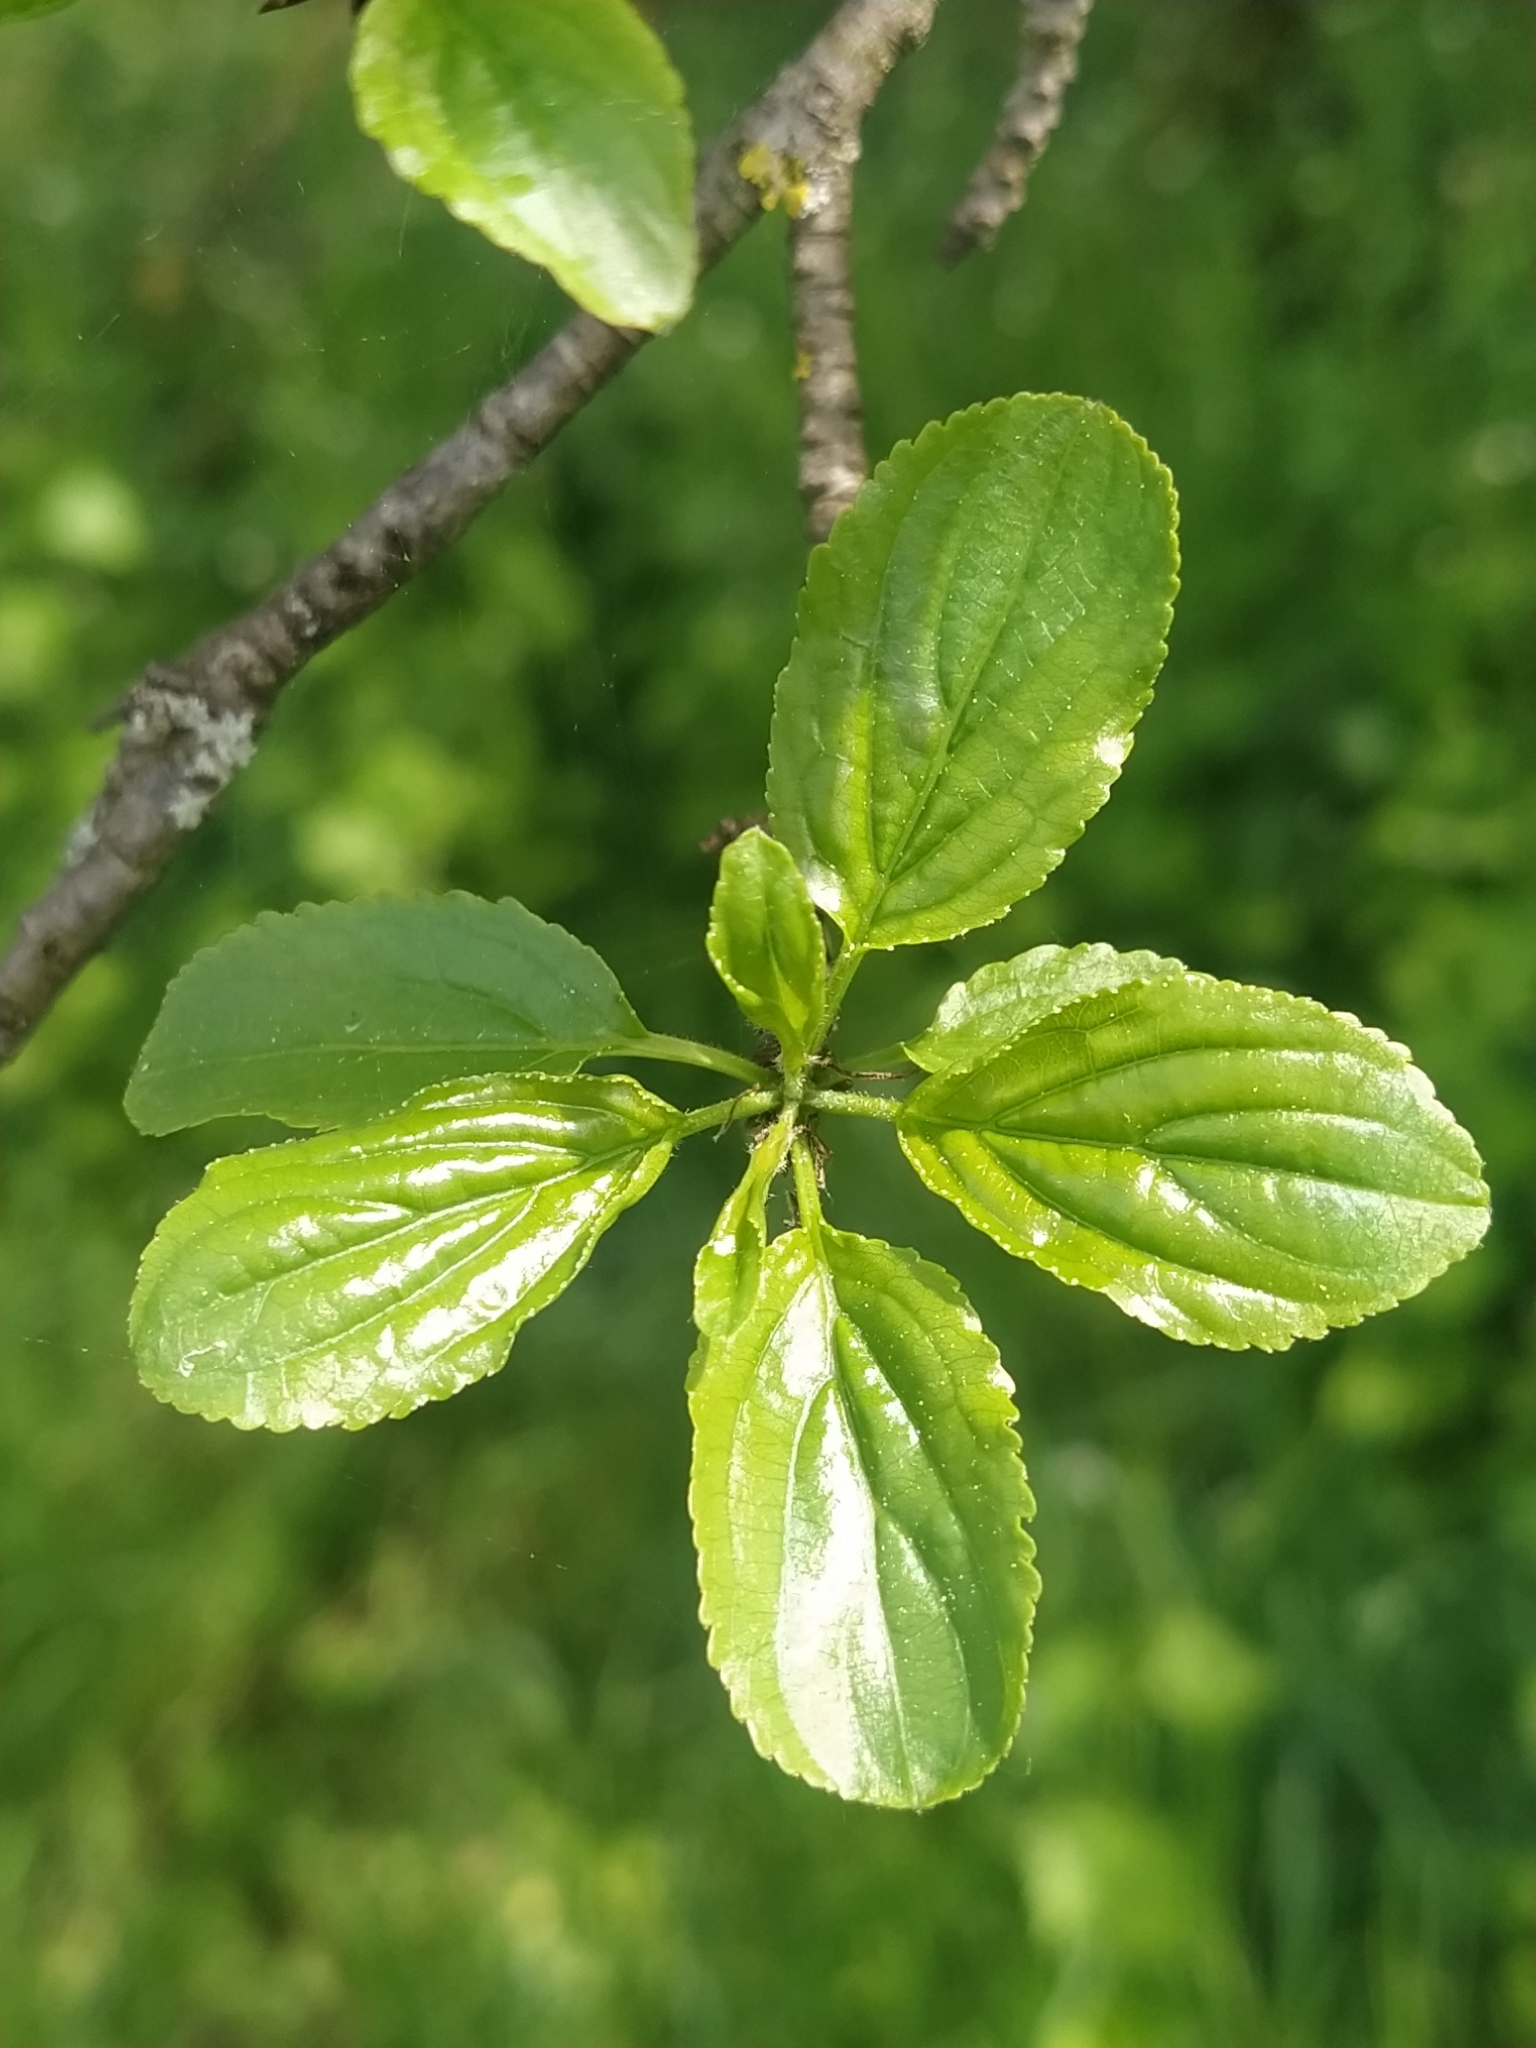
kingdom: Plantae
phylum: Tracheophyta
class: Magnoliopsida
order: Rosales
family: Rhamnaceae
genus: Rhamnus
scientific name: Rhamnus cathartica
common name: Common buckthorn
